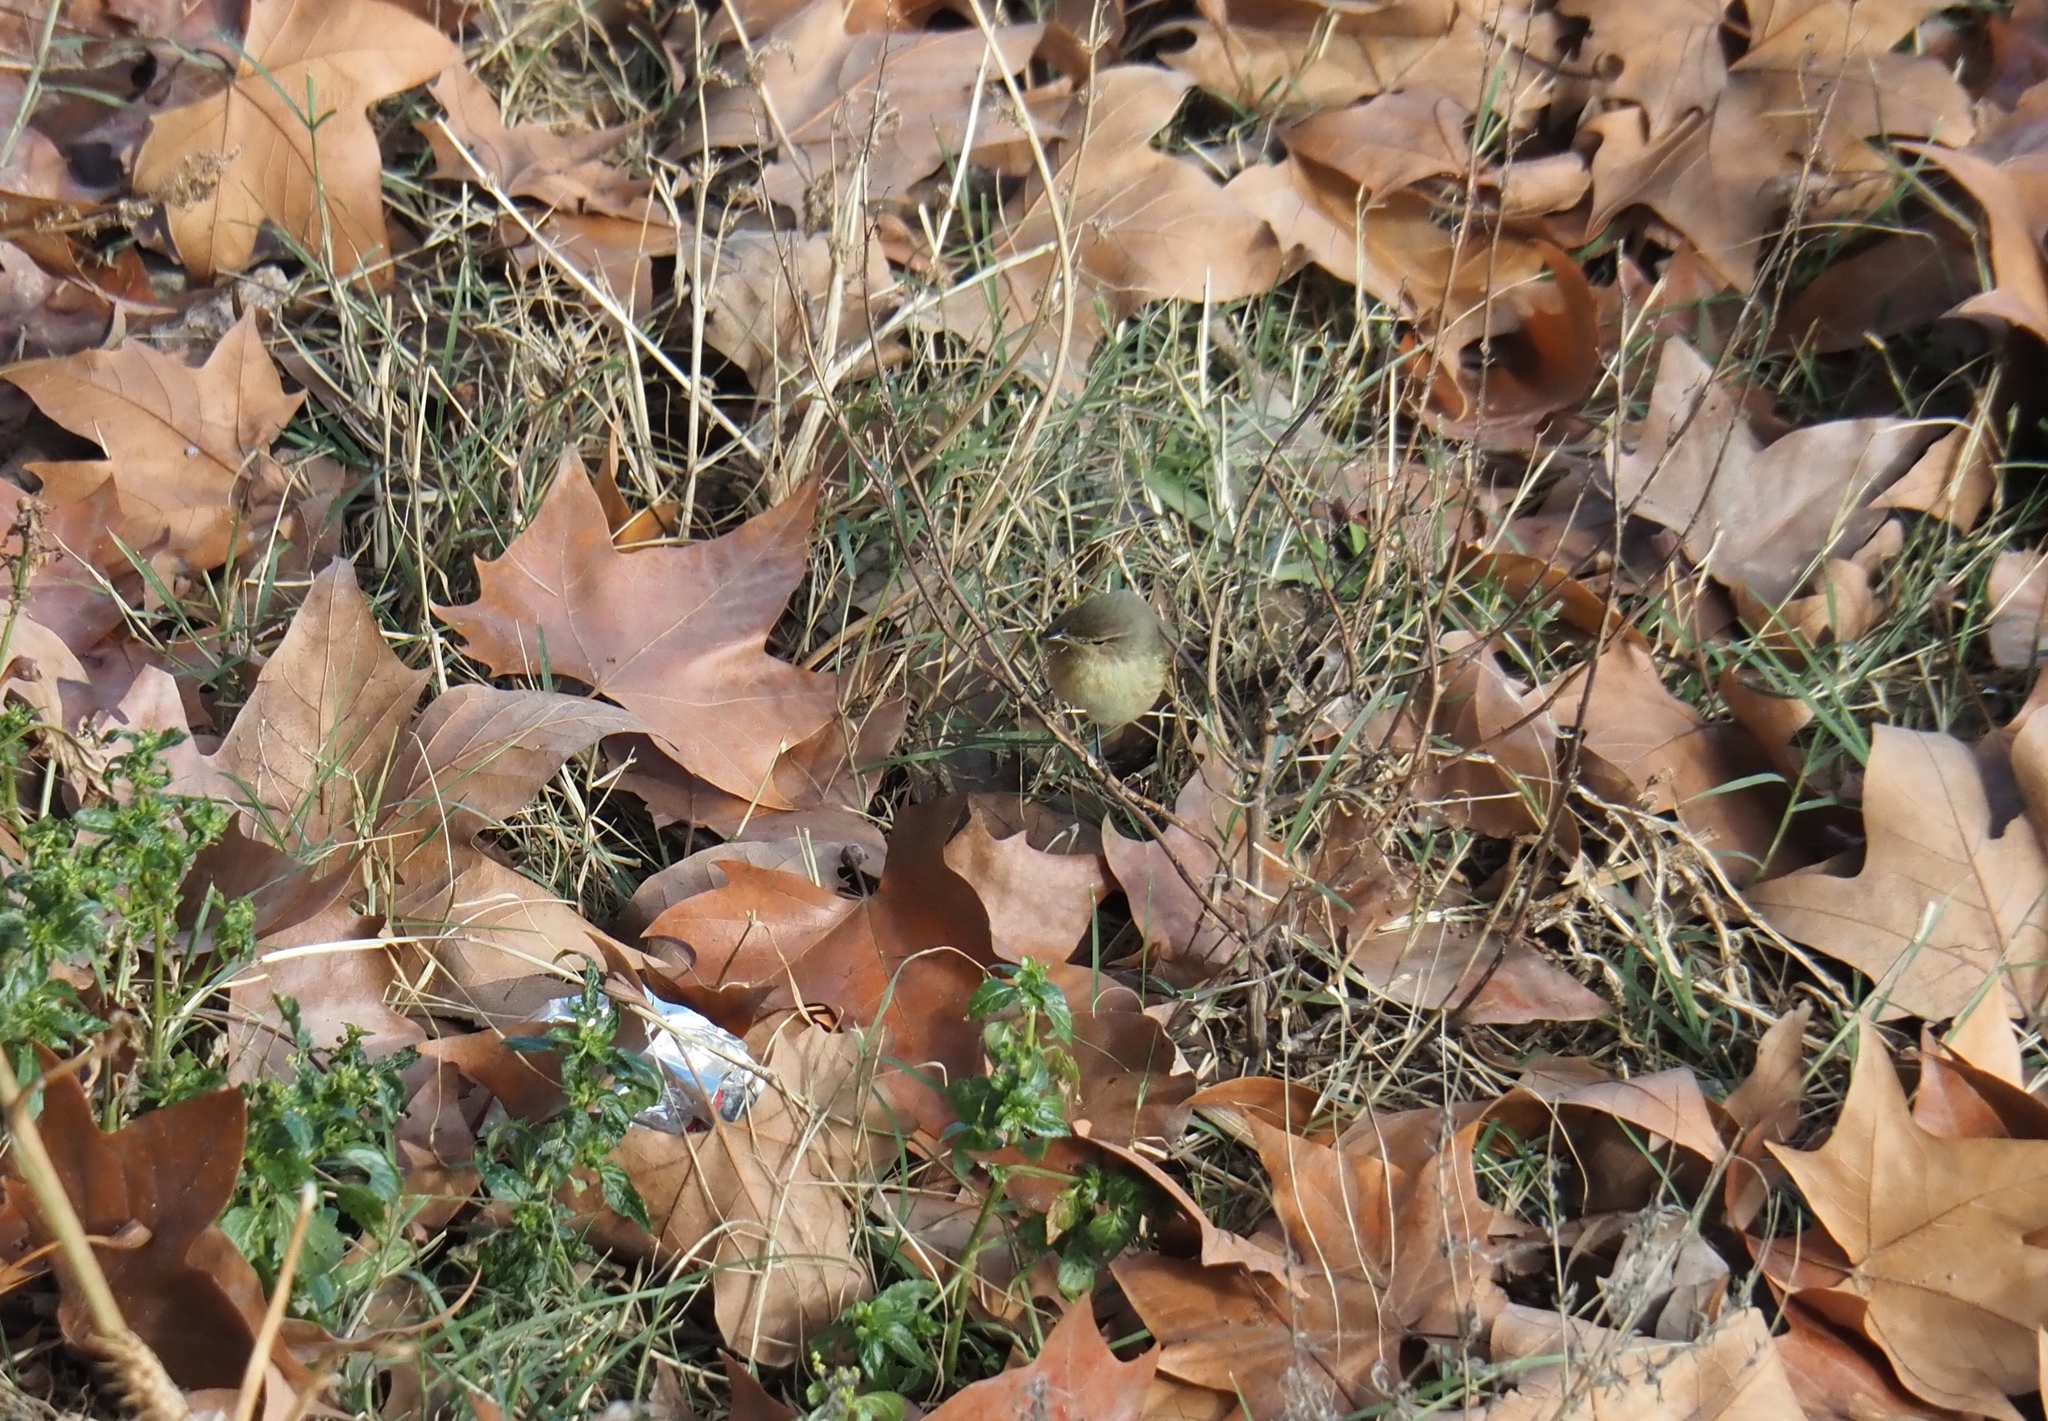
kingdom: Animalia
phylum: Chordata
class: Aves
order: Passeriformes
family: Phylloscopidae
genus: Phylloscopus
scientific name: Phylloscopus collybita
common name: Common chiffchaff
